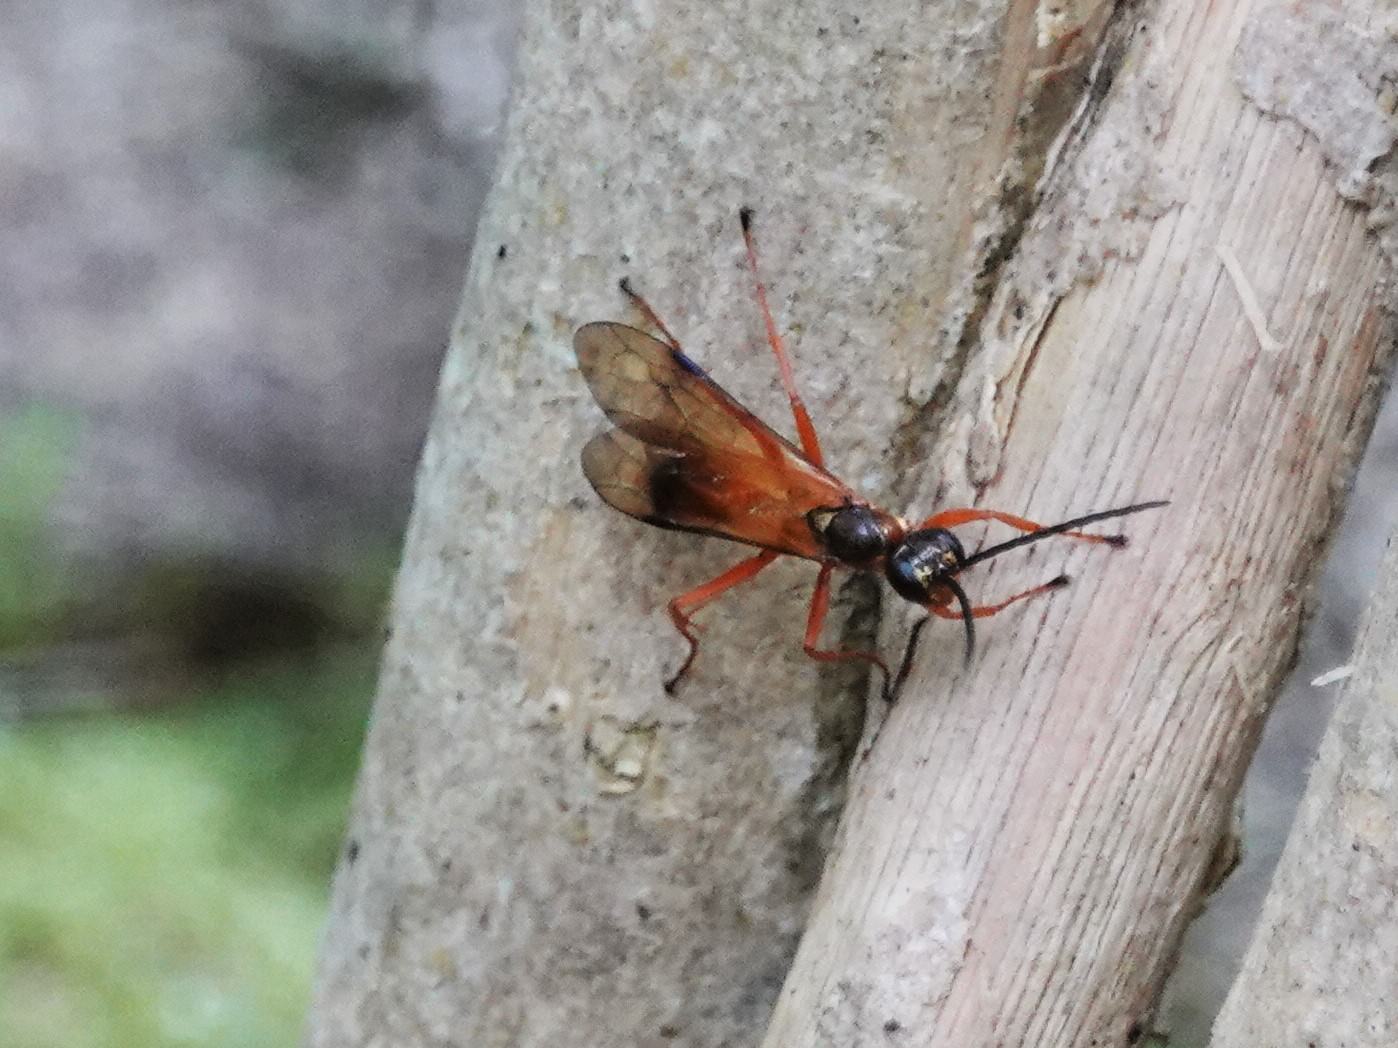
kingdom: Animalia
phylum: Arthropoda
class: Insecta
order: Hymenoptera
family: Pompilidae
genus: Priocnemis
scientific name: Priocnemis conformis
